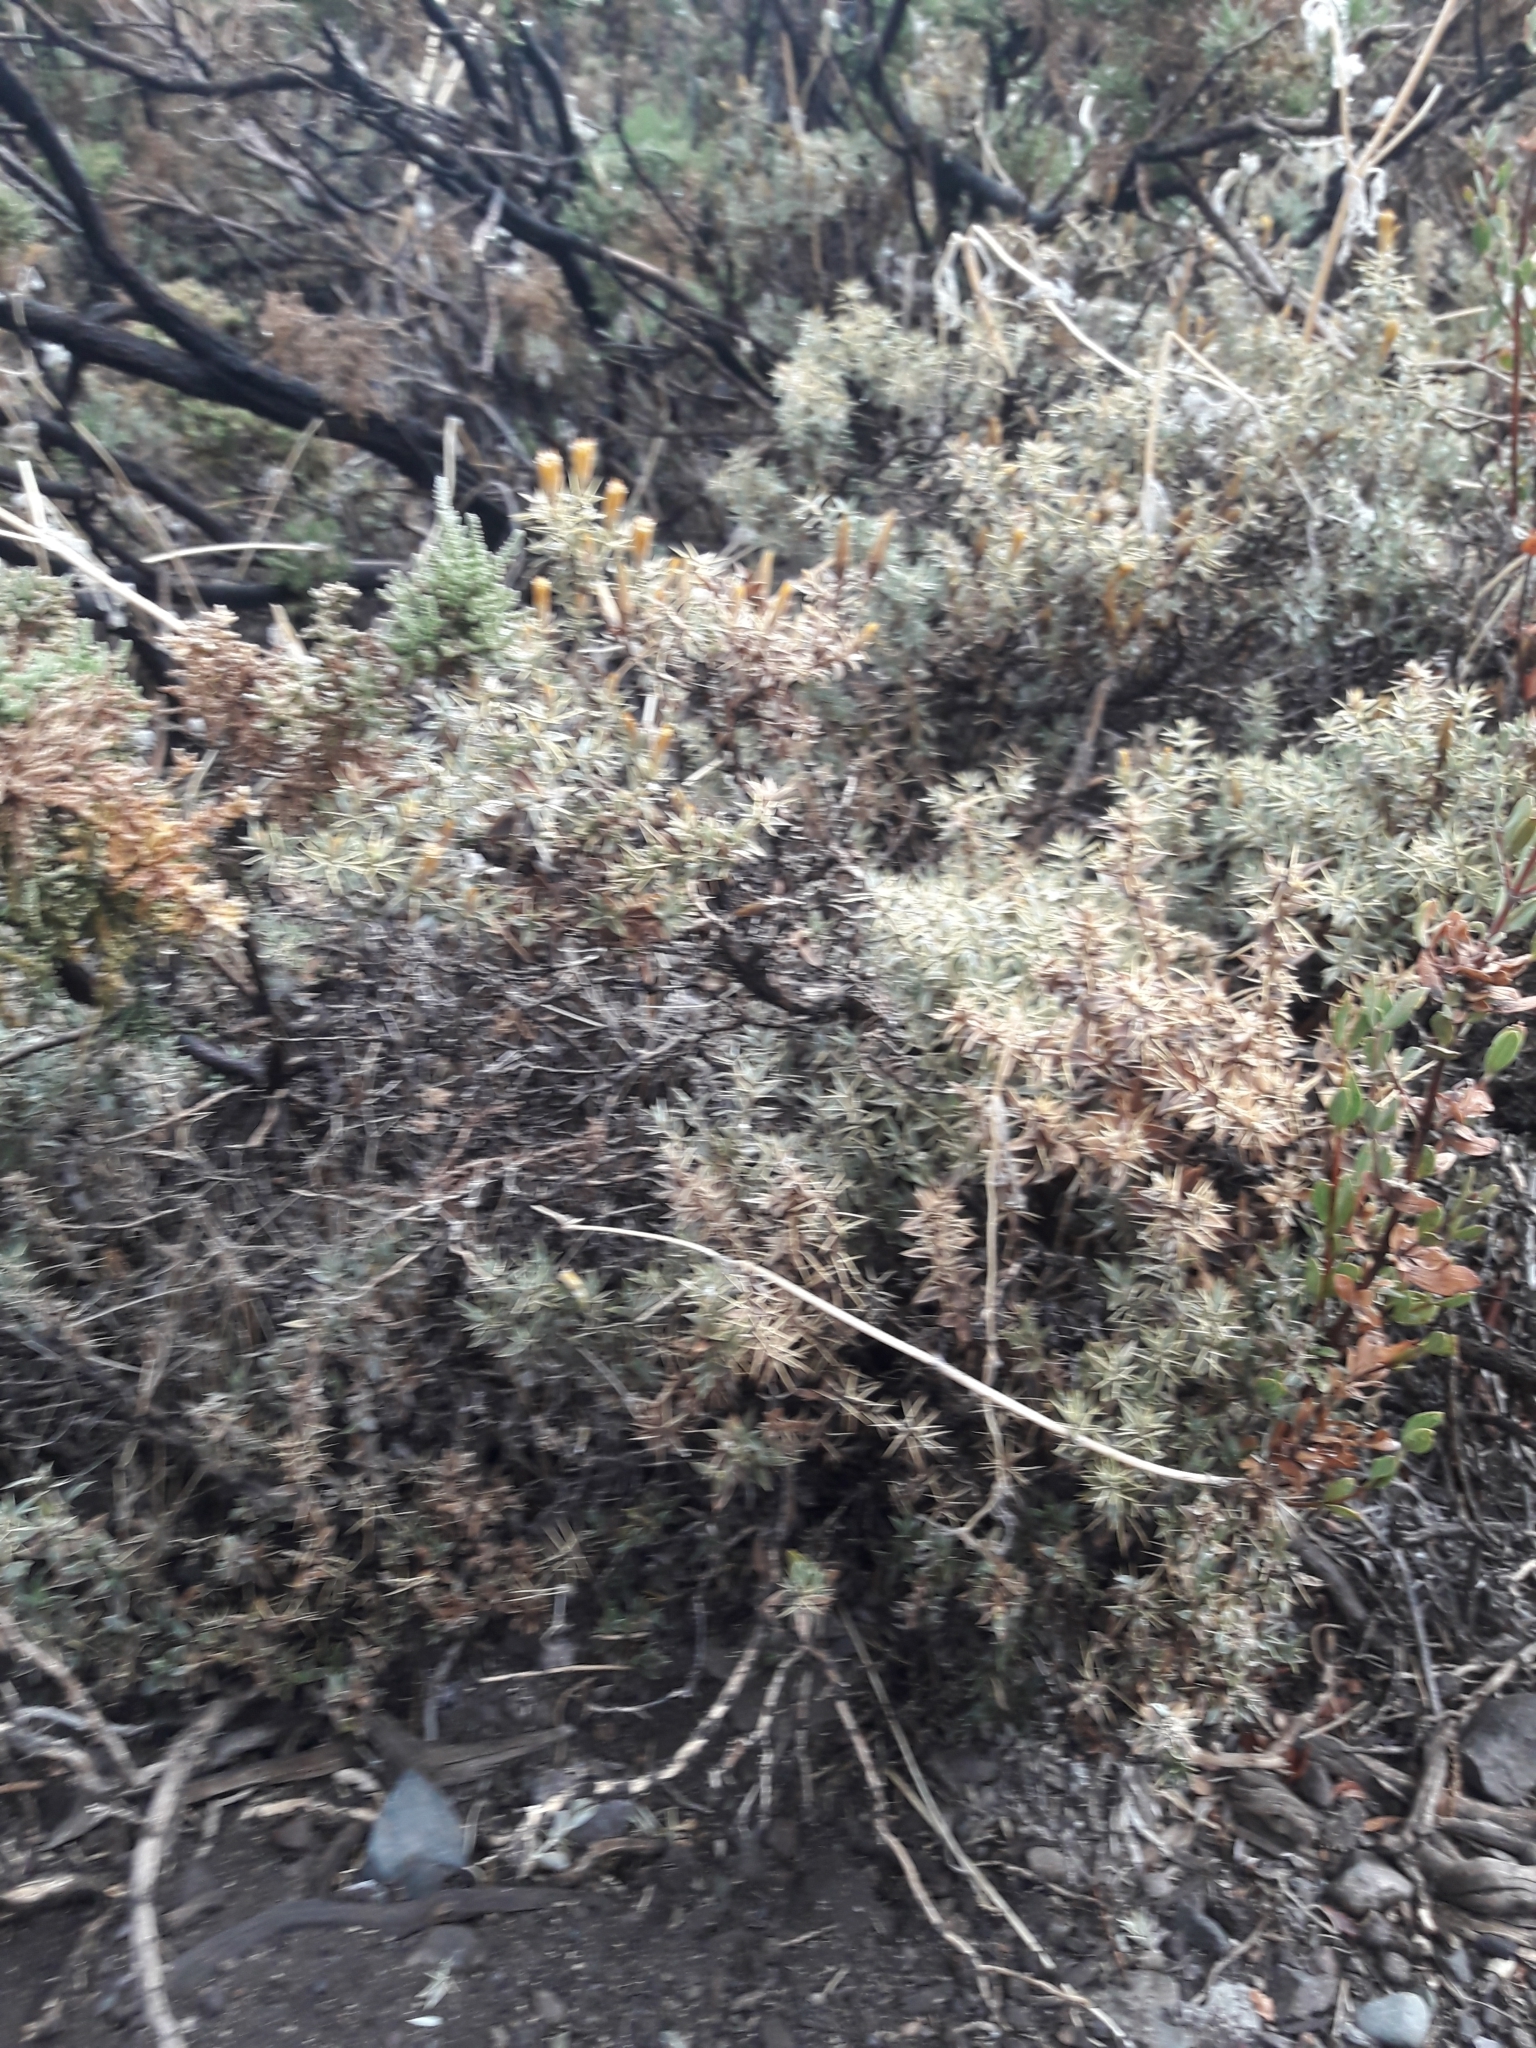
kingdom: Plantae
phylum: Tracheophyta
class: Magnoliopsida
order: Asterales
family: Asteraceae
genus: Chuquiraga
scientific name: Chuquiraga oppositifolia
